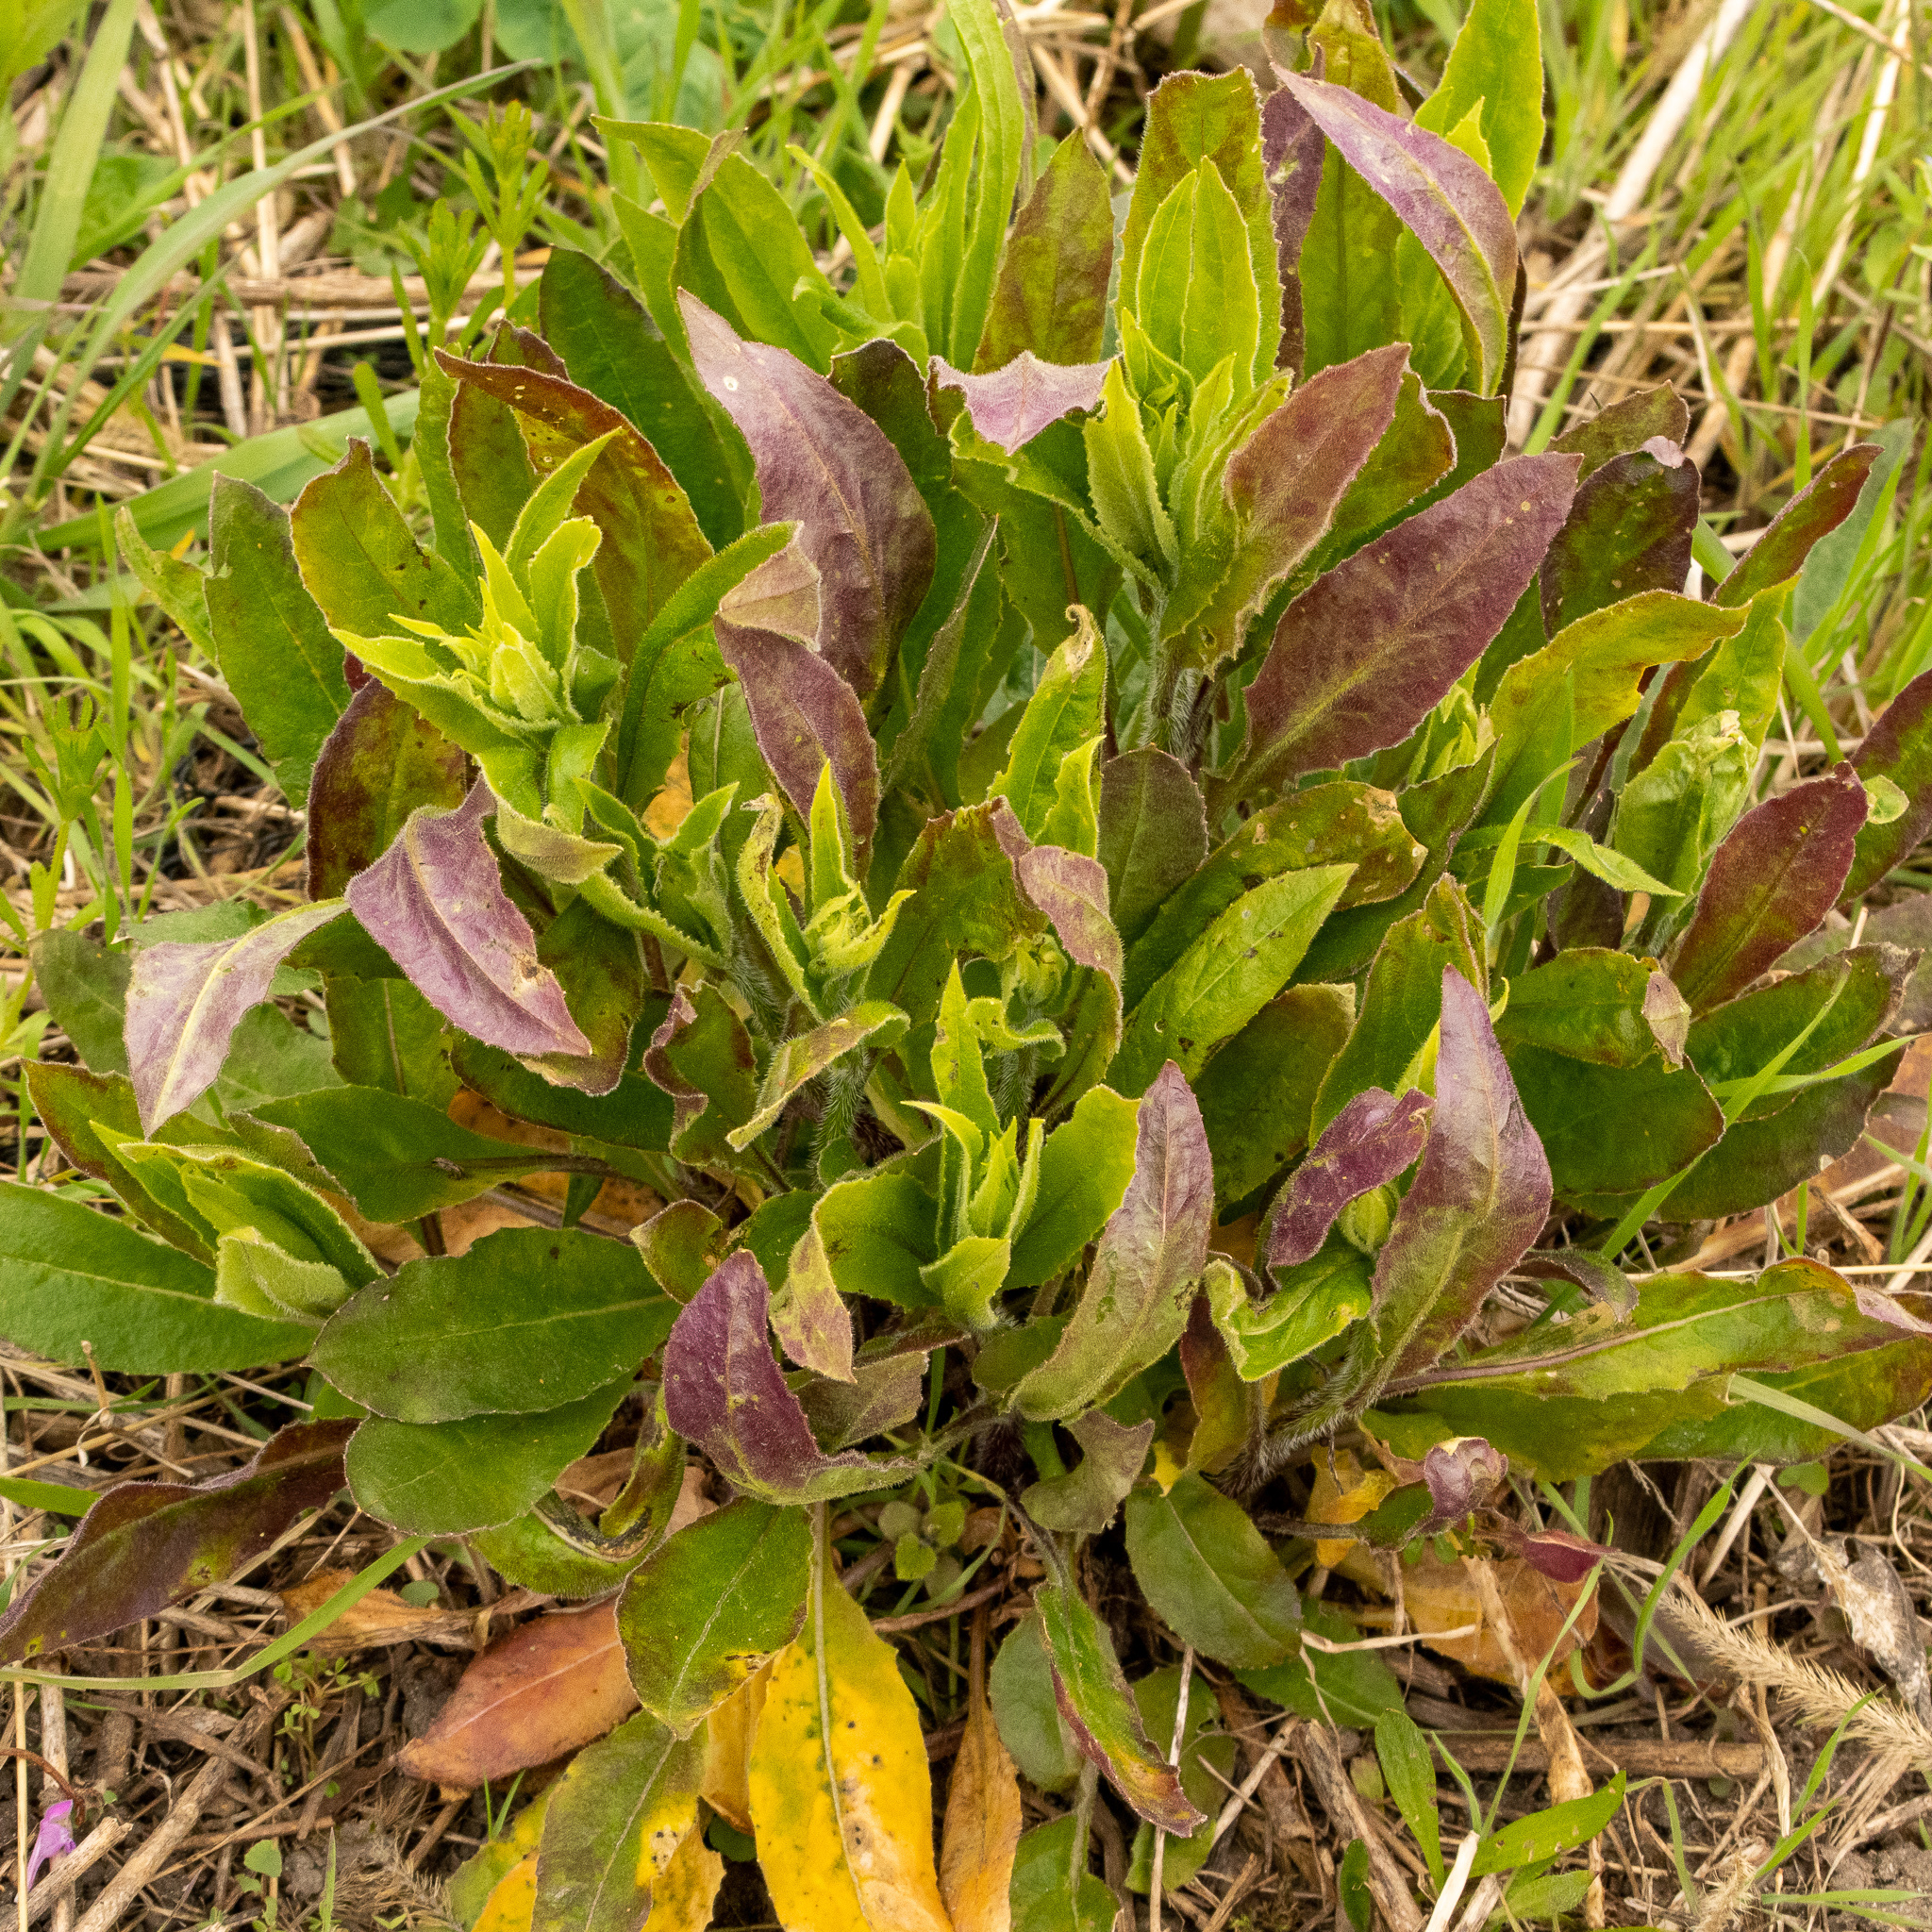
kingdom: Plantae
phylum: Tracheophyta
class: Magnoliopsida
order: Brassicales
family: Brassicaceae
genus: Hesperis
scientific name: Hesperis matronalis
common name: Dame's-violet
